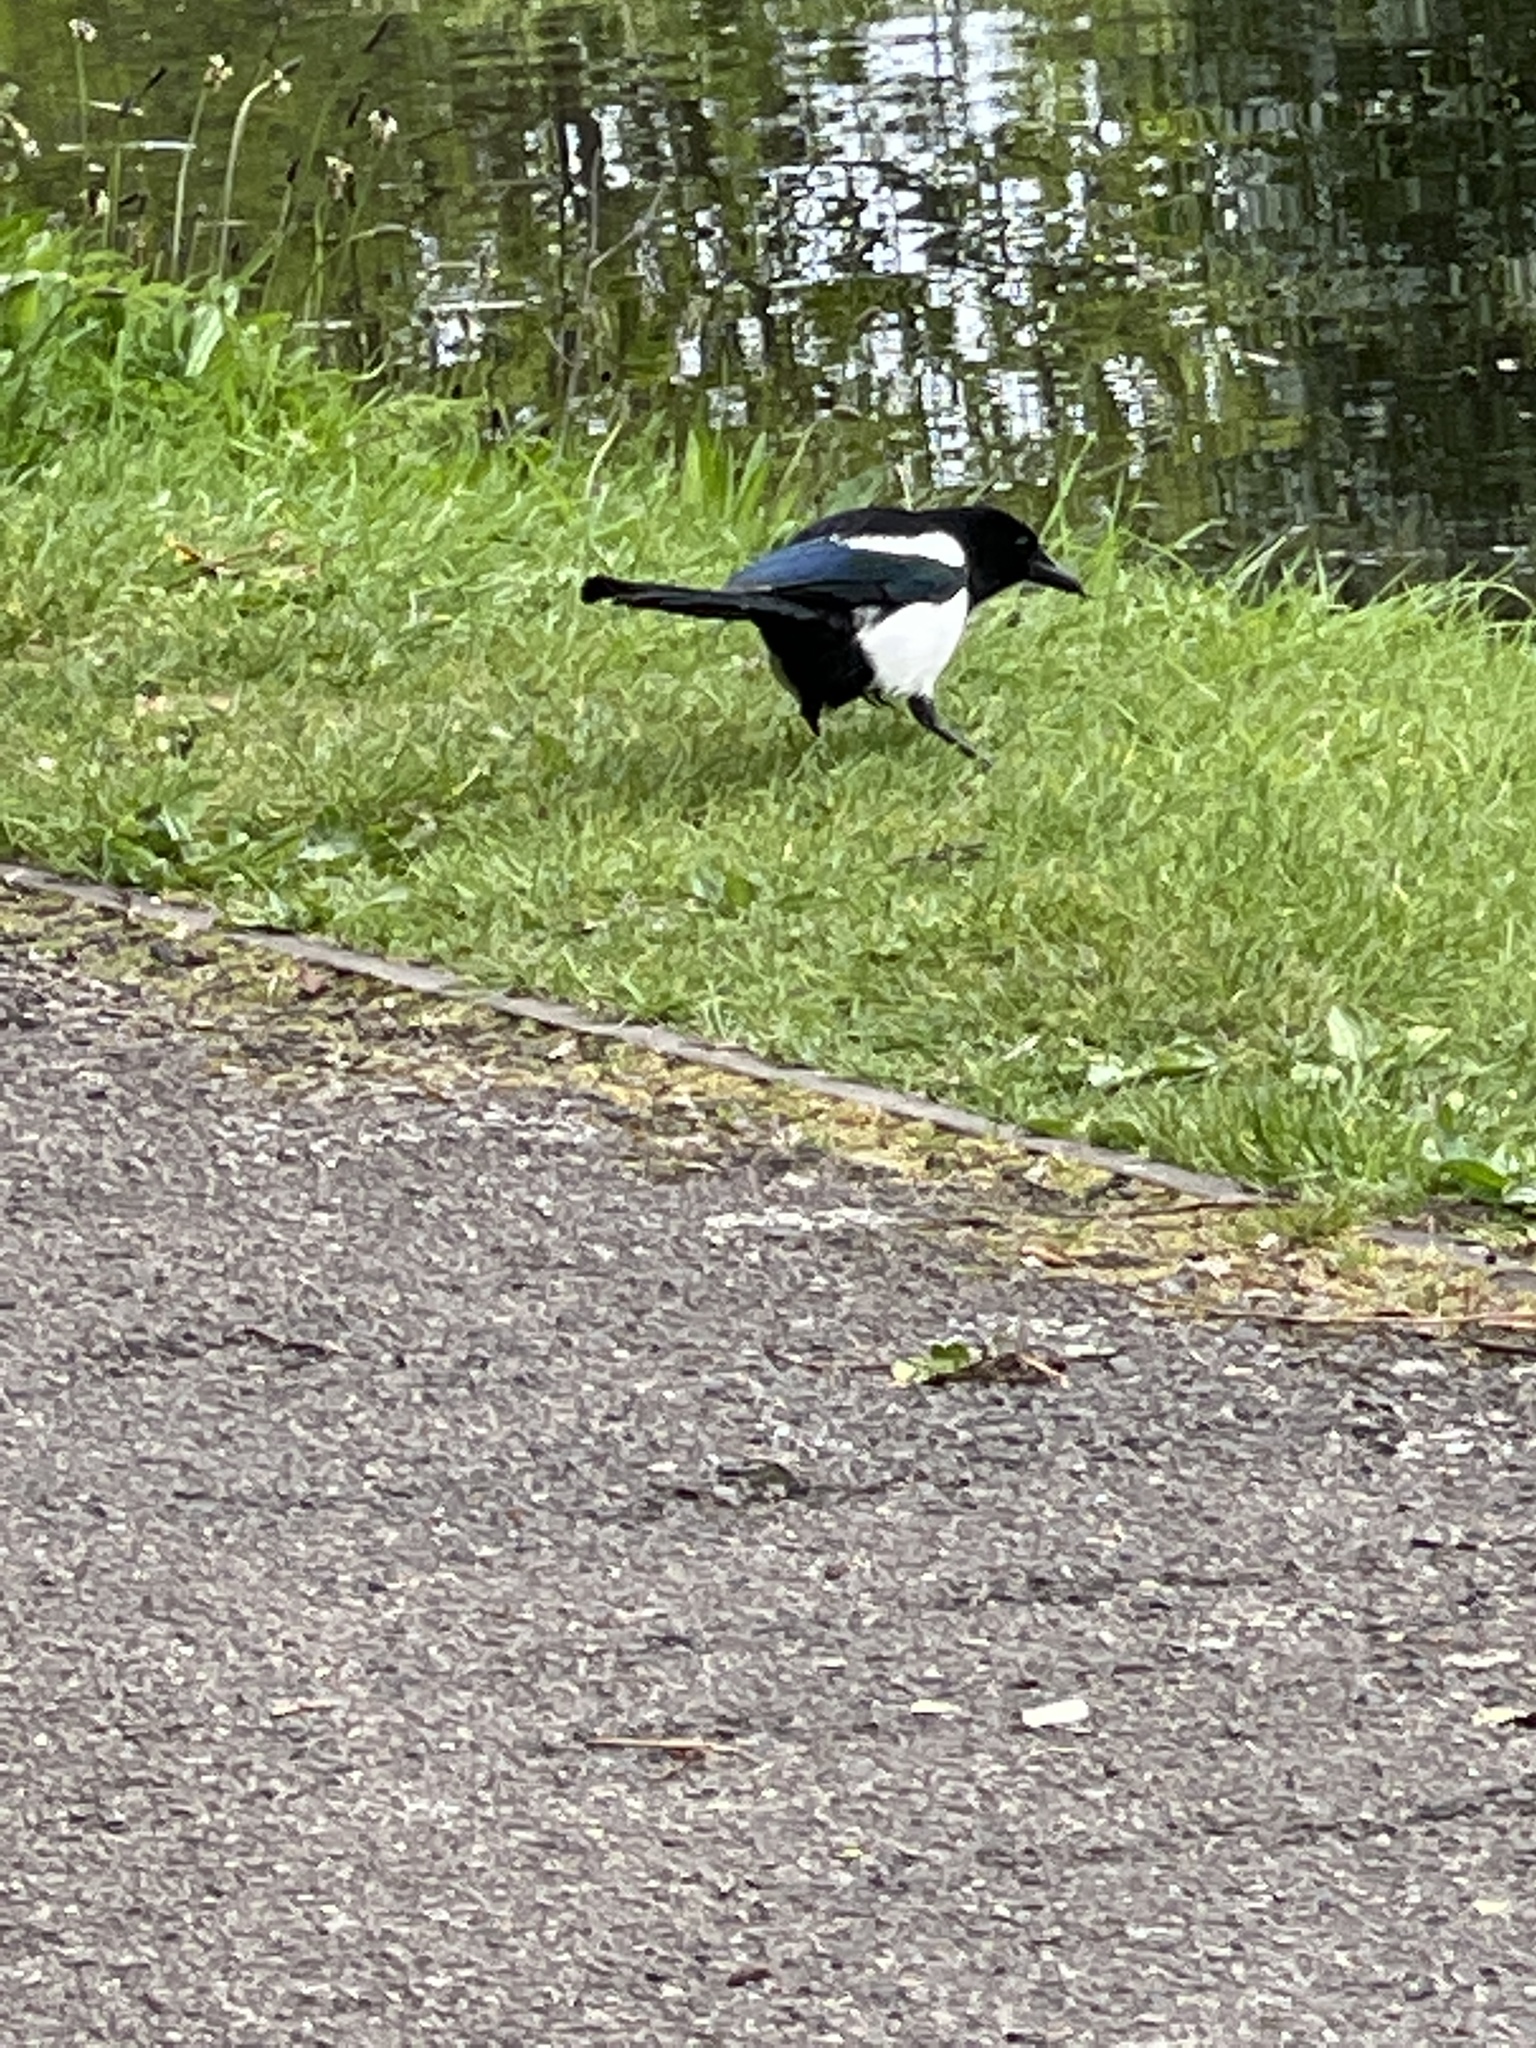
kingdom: Animalia
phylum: Chordata
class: Aves
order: Passeriformes
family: Corvidae
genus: Pica
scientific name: Pica pica
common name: Eurasian magpie
